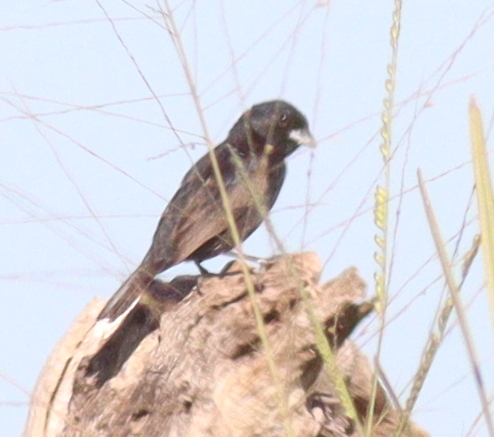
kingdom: Animalia
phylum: Chordata
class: Aves
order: Passeriformes
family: Thraupidae
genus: Volatinia
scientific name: Volatinia jacarina
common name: Blue-black grassquit
